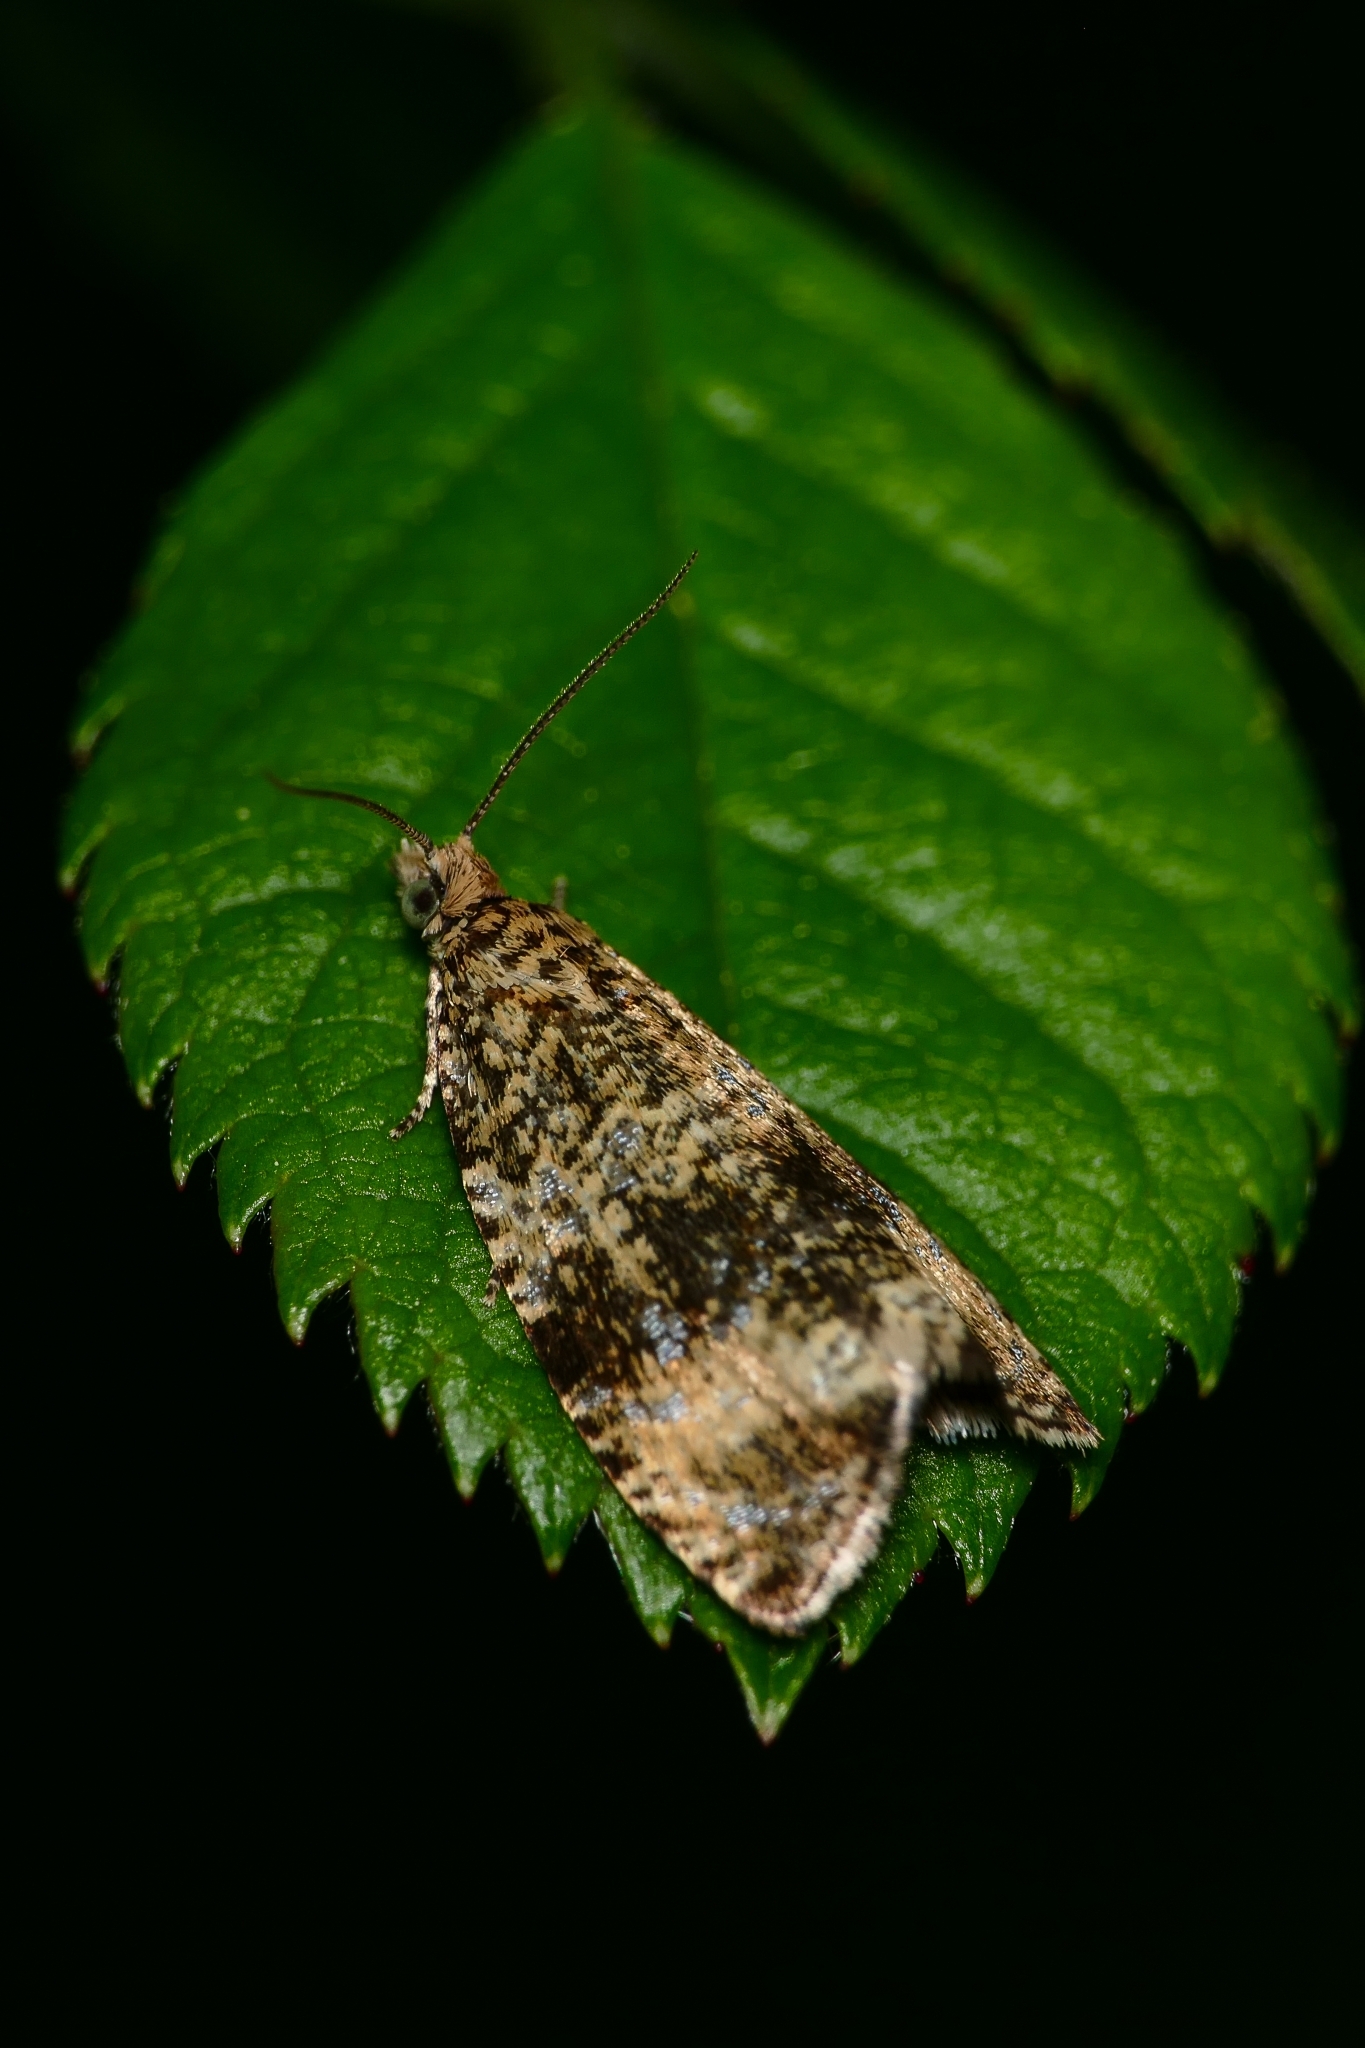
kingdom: Animalia
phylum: Arthropoda
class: Insecta
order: Lepidoptera
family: Tortricidae
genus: Syricoris
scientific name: Syricoris lacunana
